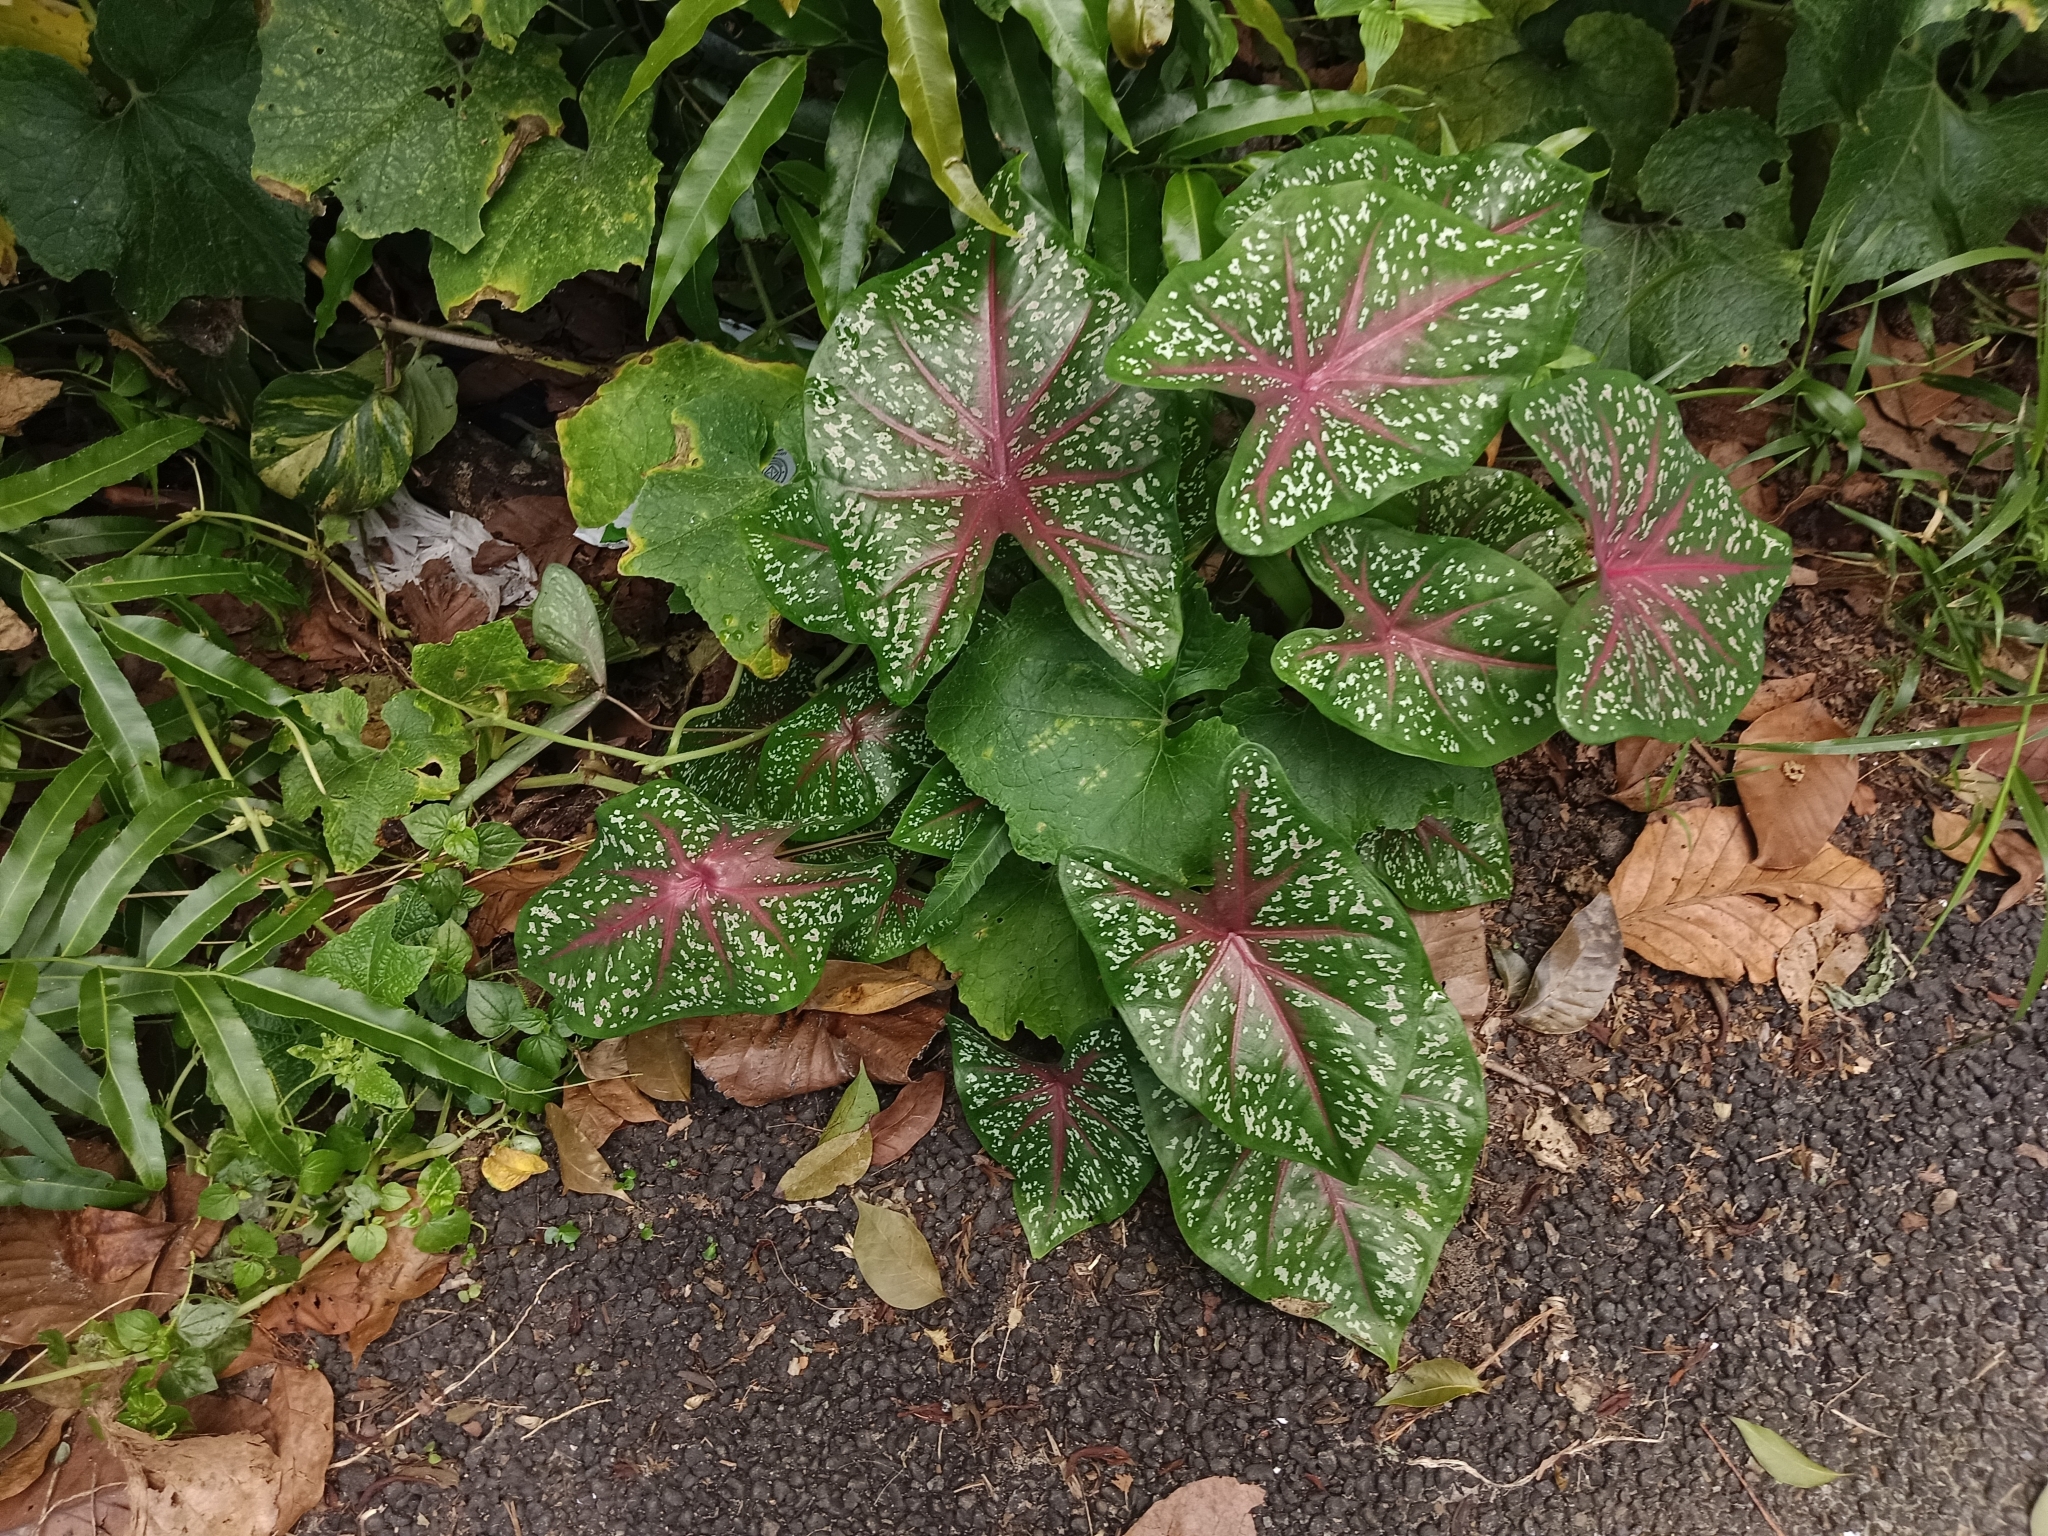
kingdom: Plantae
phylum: Tracheophyta
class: Liliopsida
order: Alismatales
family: Araceae
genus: Caladium
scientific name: Caladium bicolor
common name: Artist's pallet
